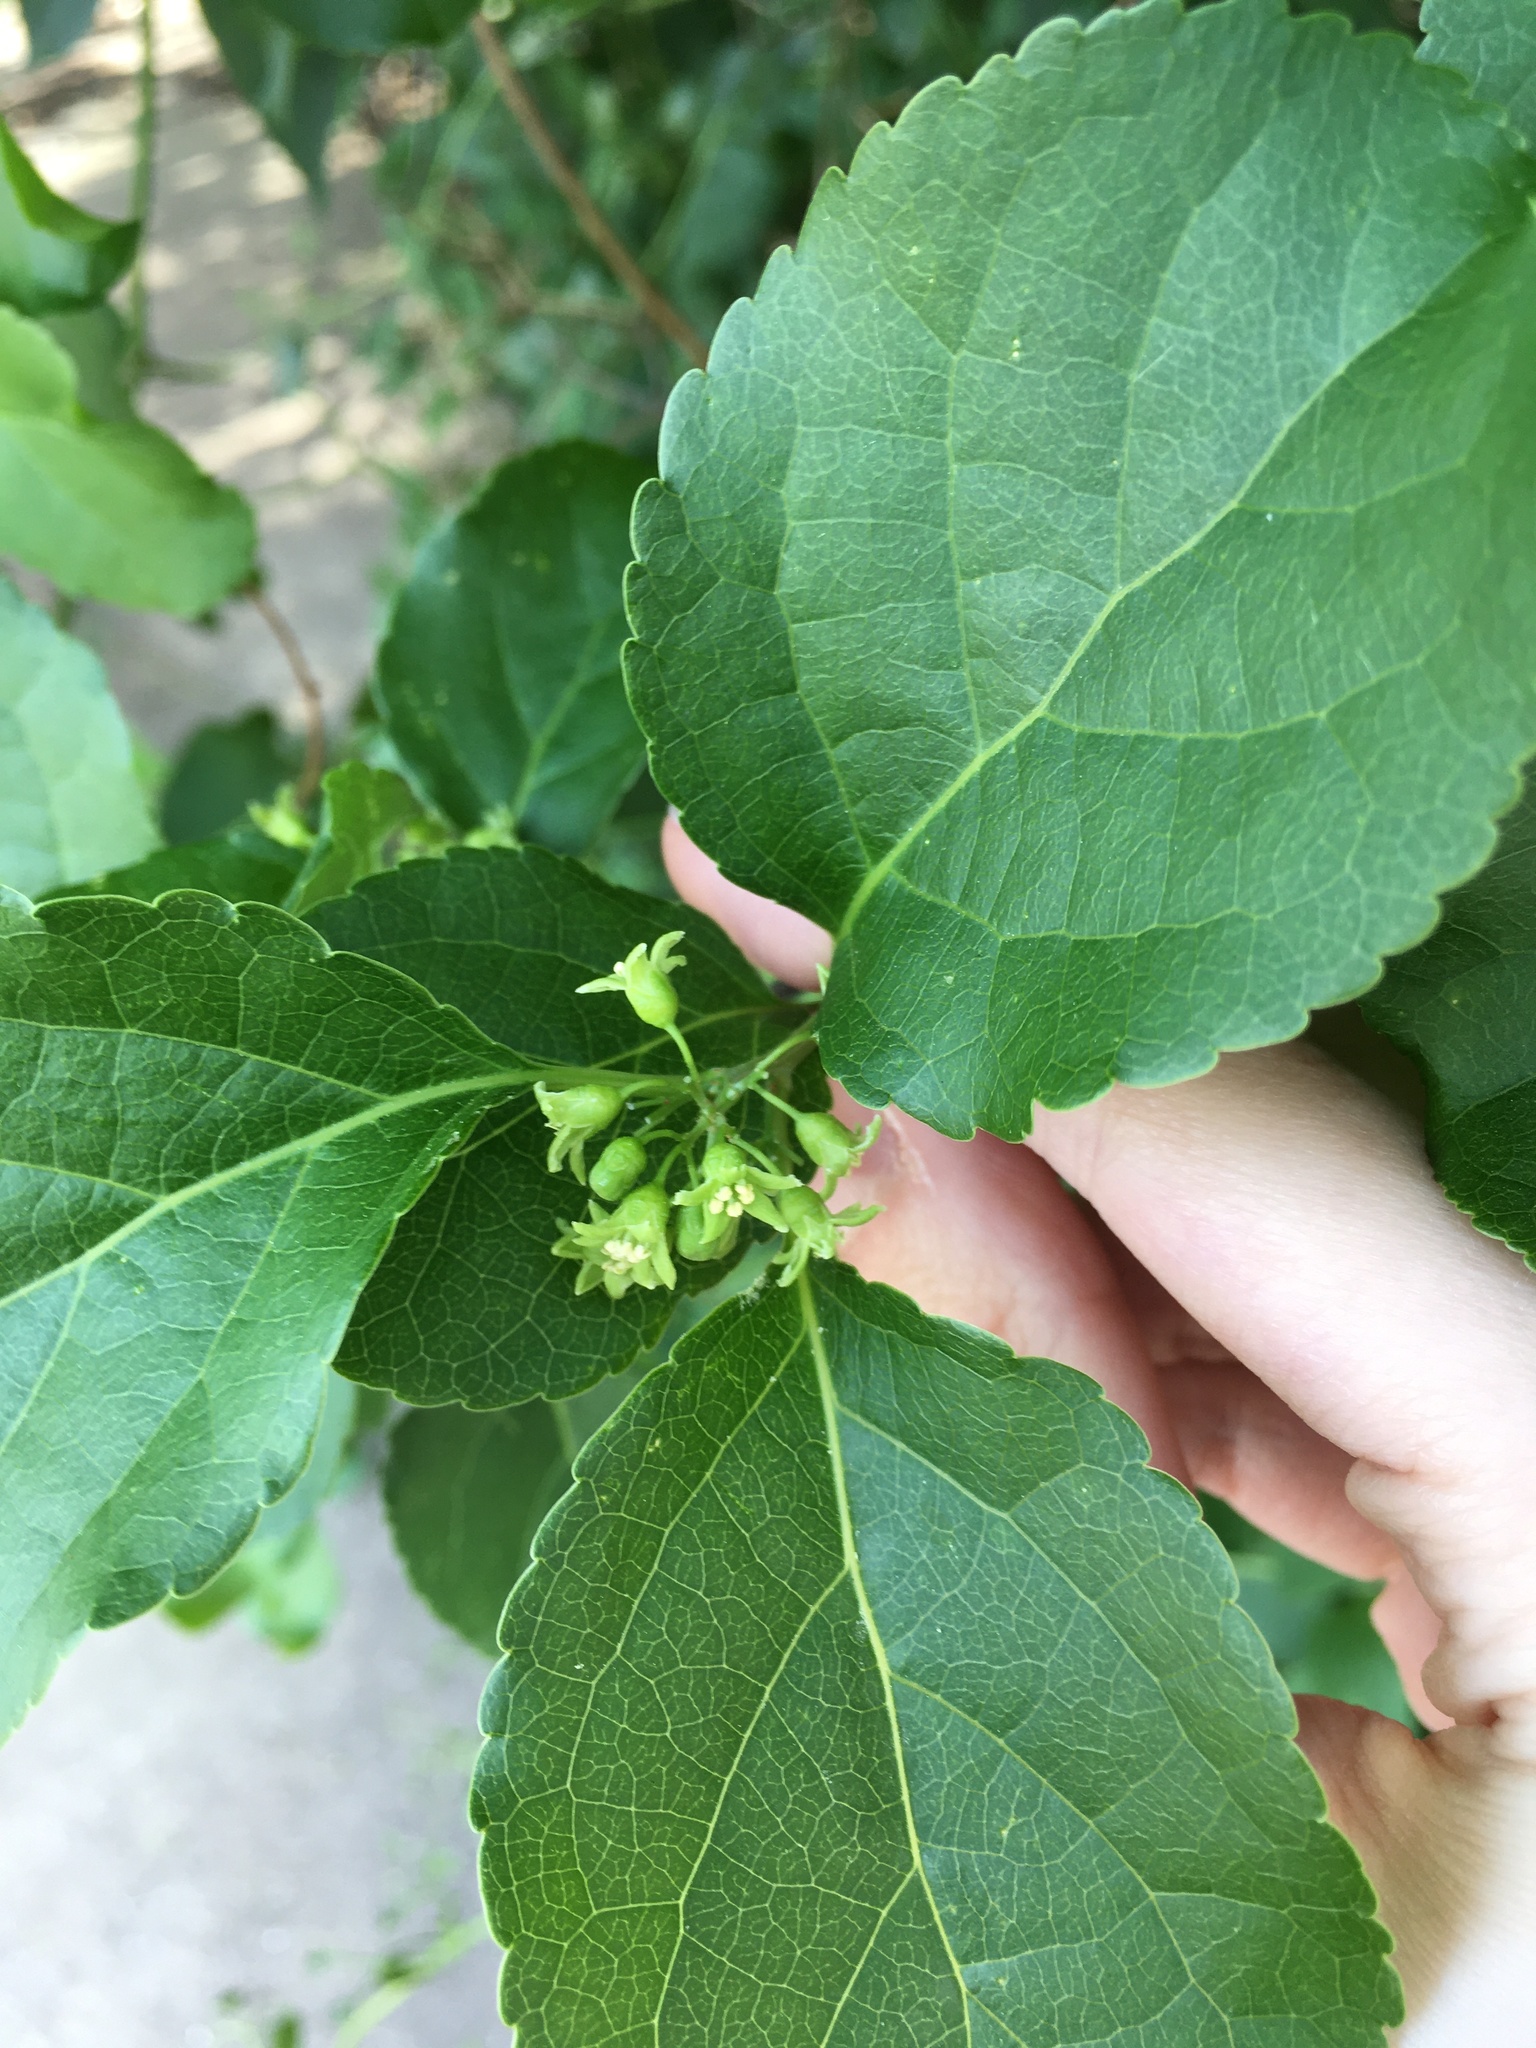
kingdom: Plantae
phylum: Tracheophyta
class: Magnoliopsida
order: Celastrales
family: Celastraceae
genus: Celastrus
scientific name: Celastrus orbiculatus
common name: Oriental bittersweet
